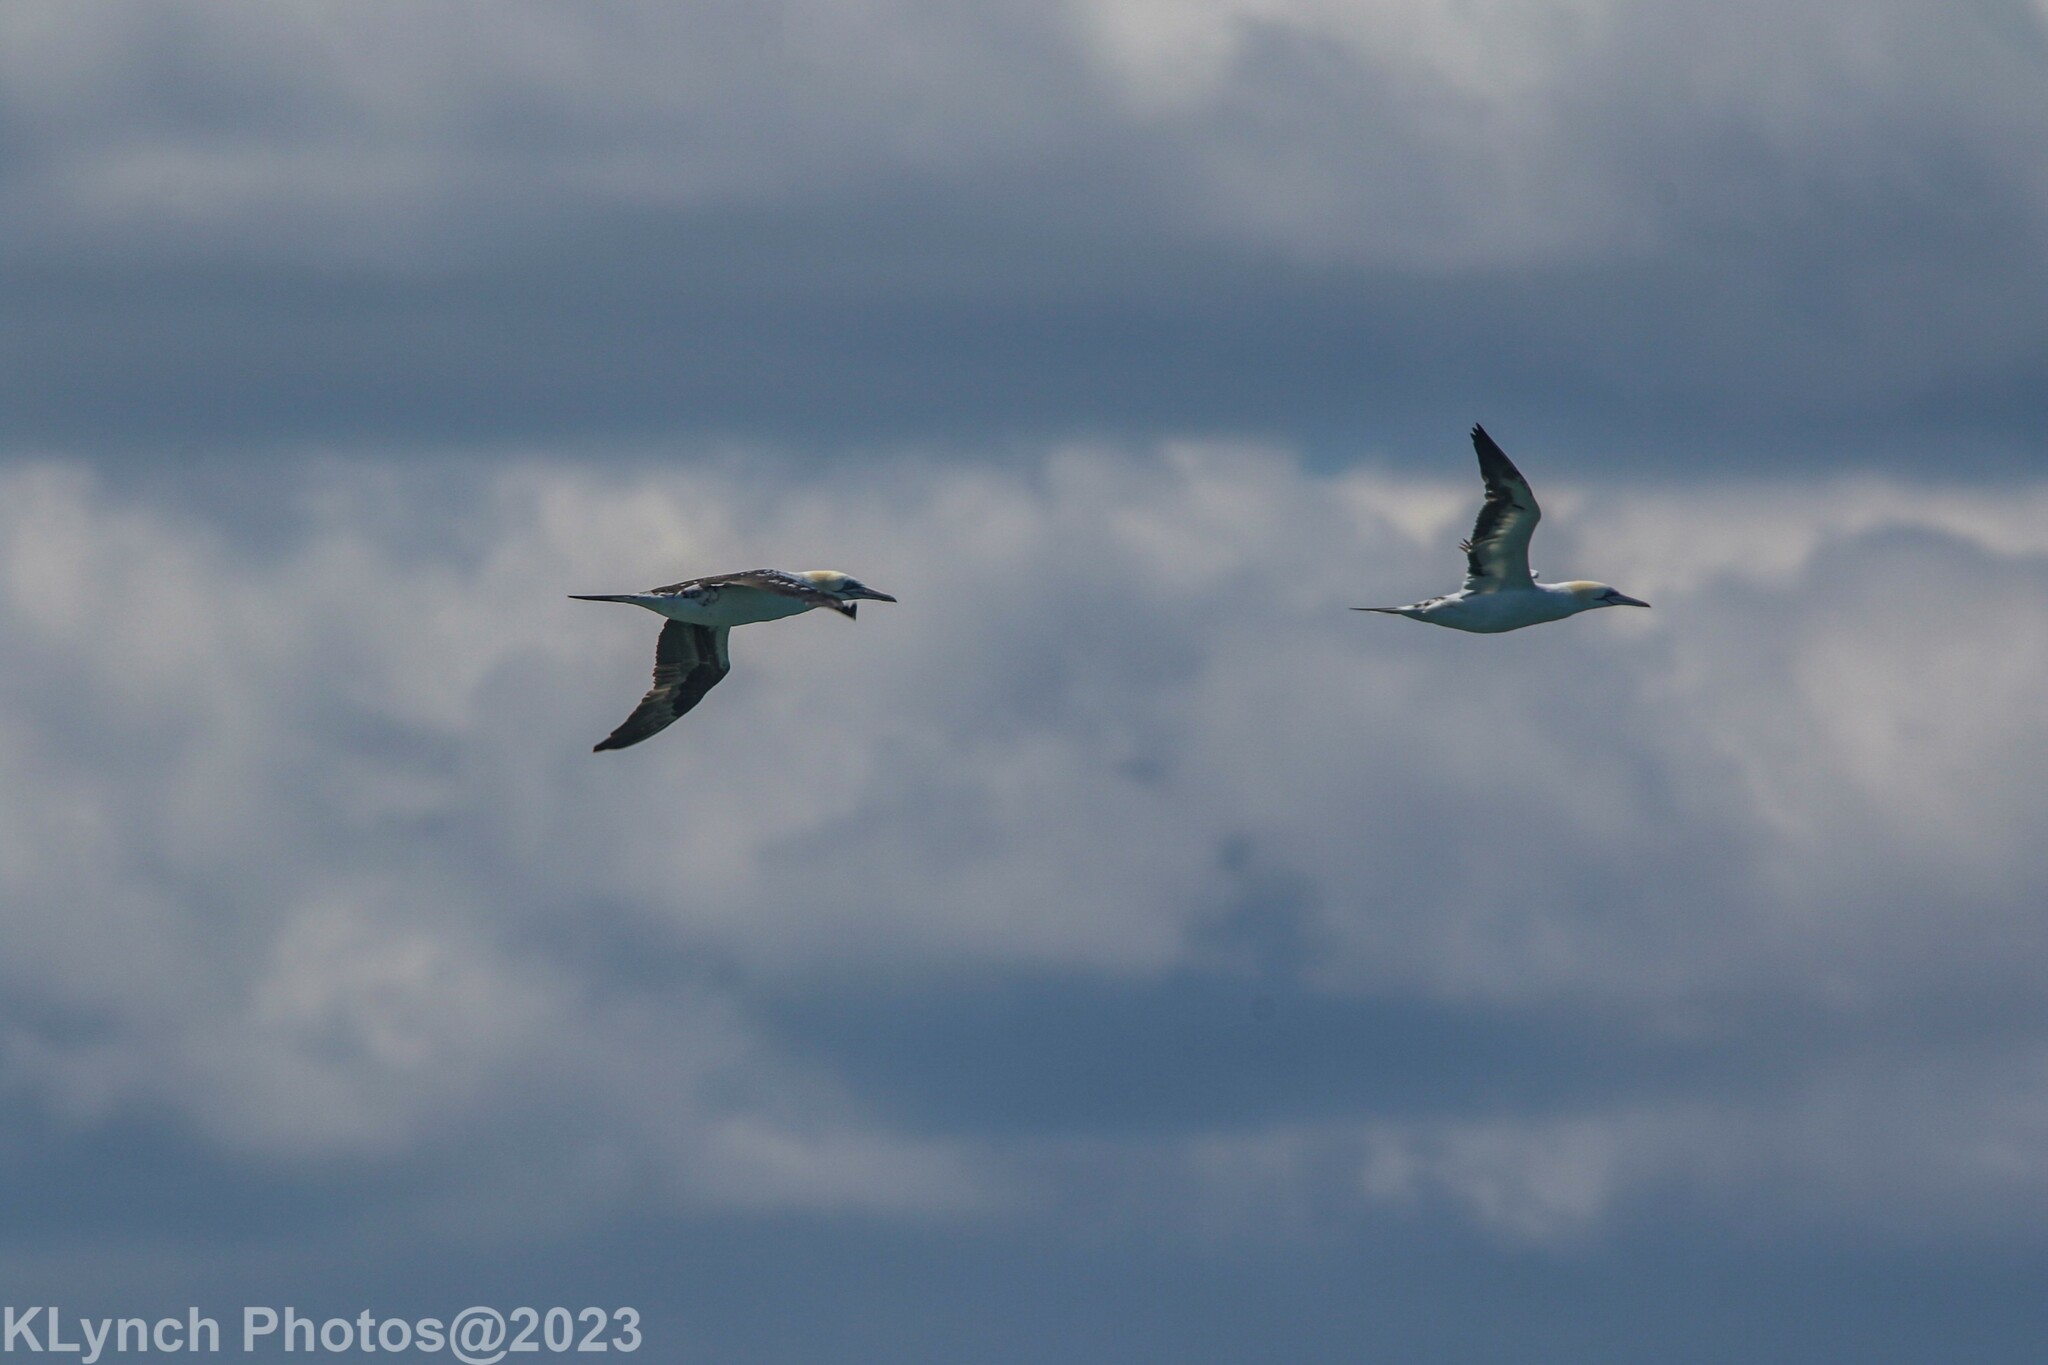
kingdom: Animalia
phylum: Chordata
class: Aves
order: Suliformes
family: Sulidae
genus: Morus
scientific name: Morus bassanus
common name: Northern gannet
